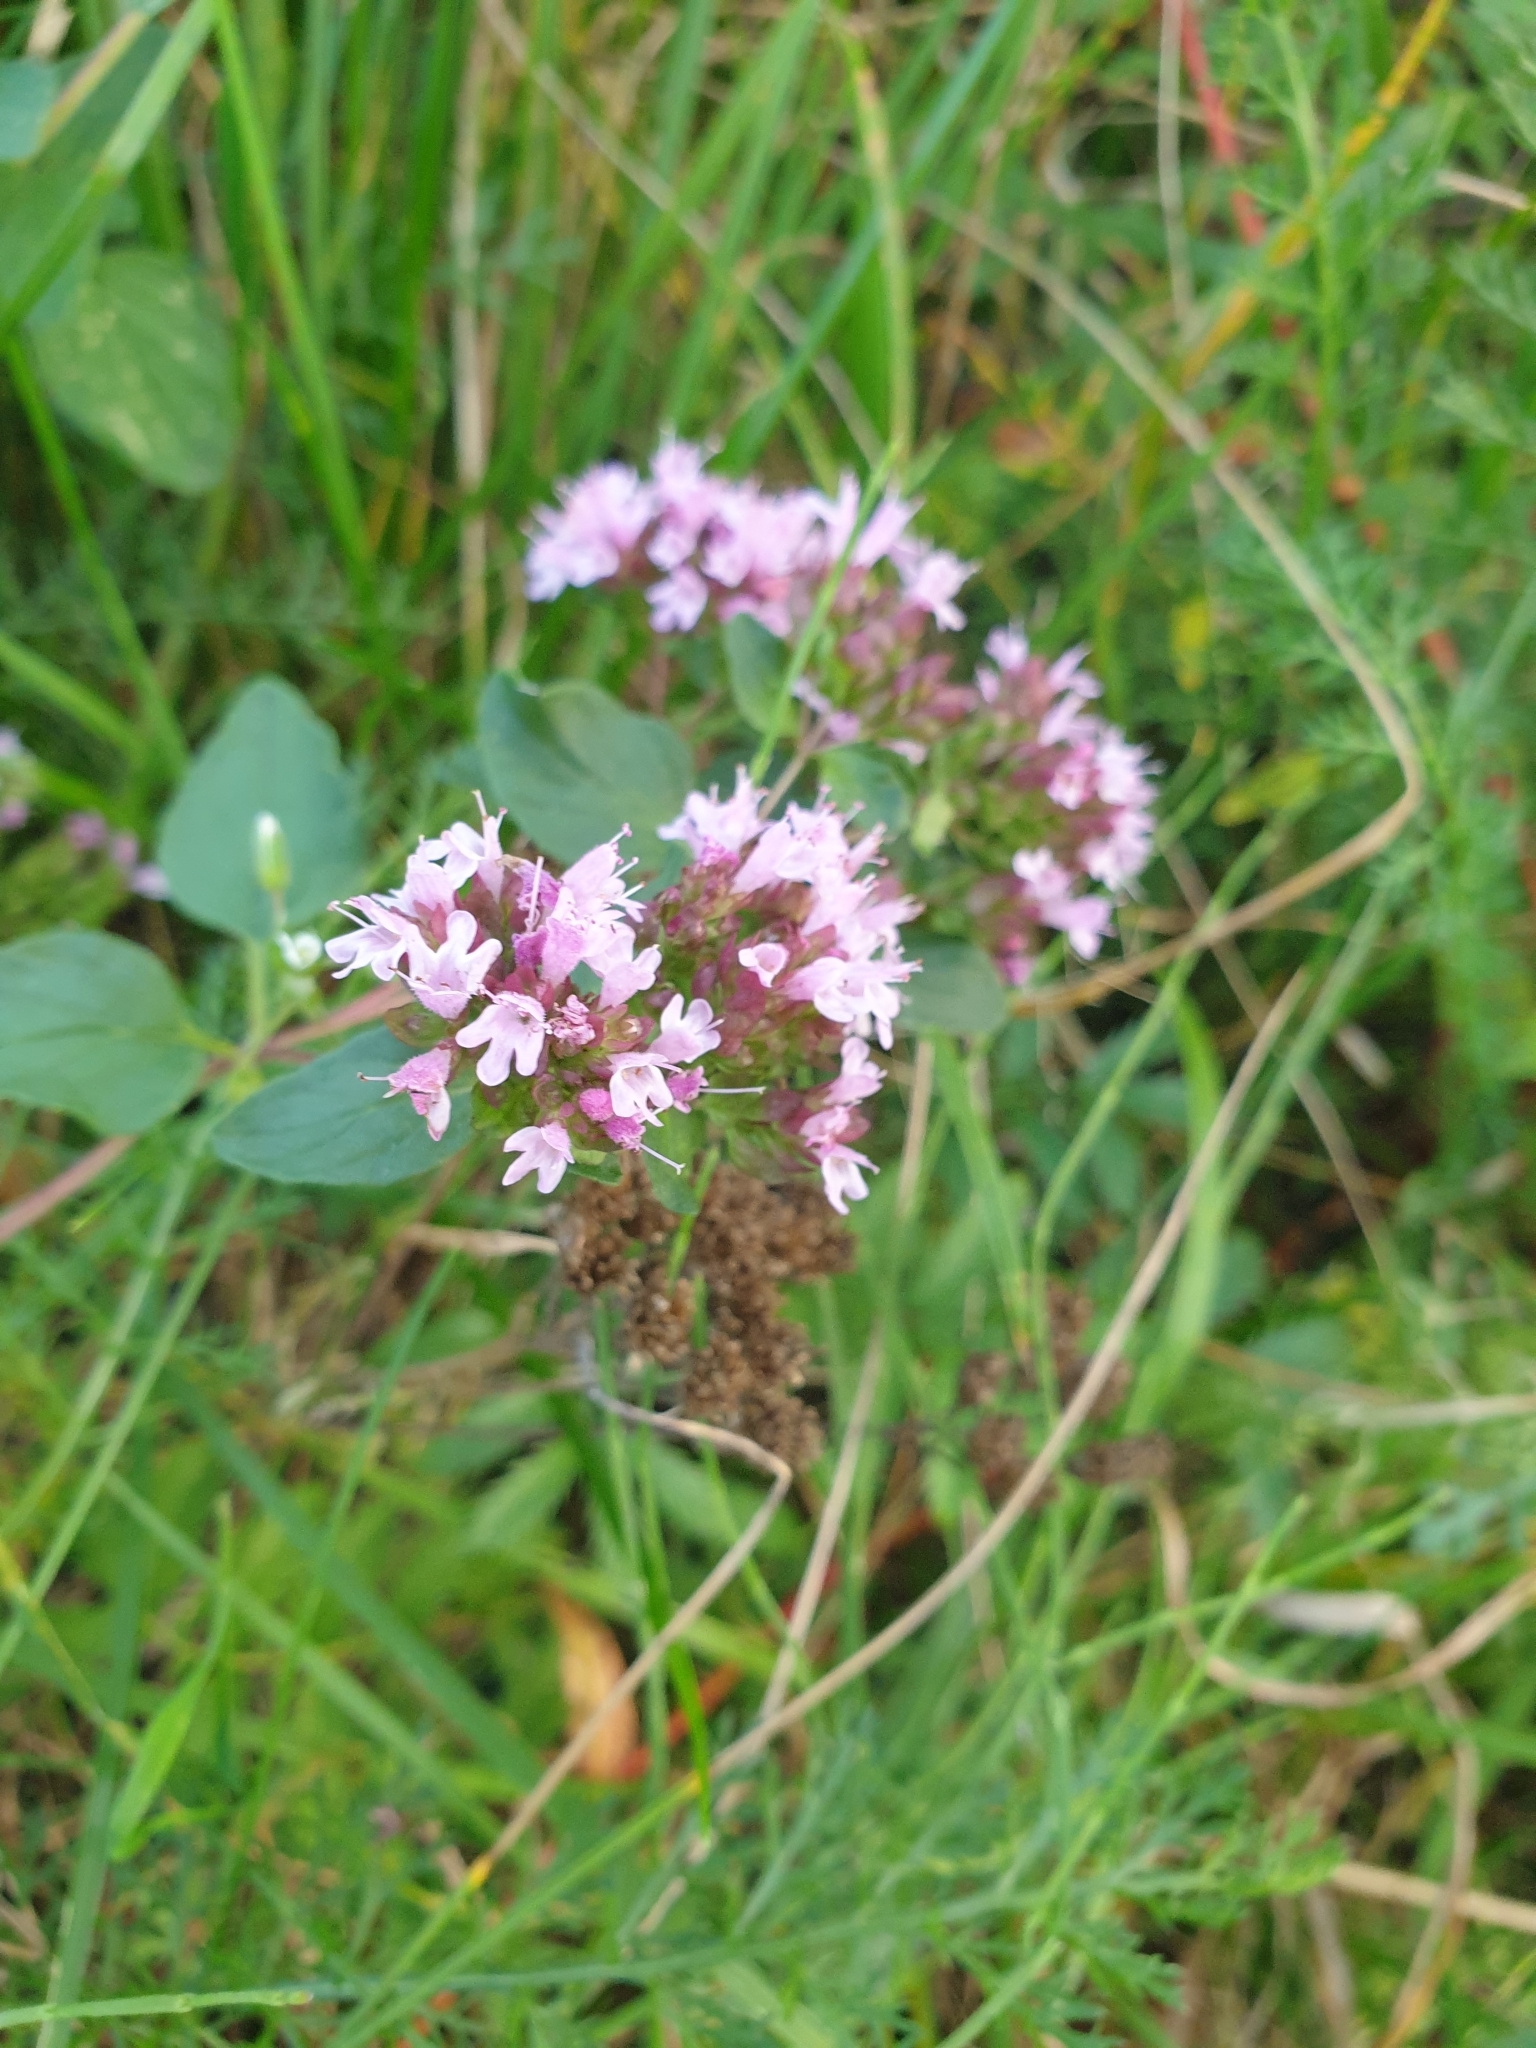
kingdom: Plantae
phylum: Tracheophyta
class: Magnoliopsida
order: Lamiales
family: Lamiaceae
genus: Origanum
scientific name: Origanum vulgare
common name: Wild marjoram
